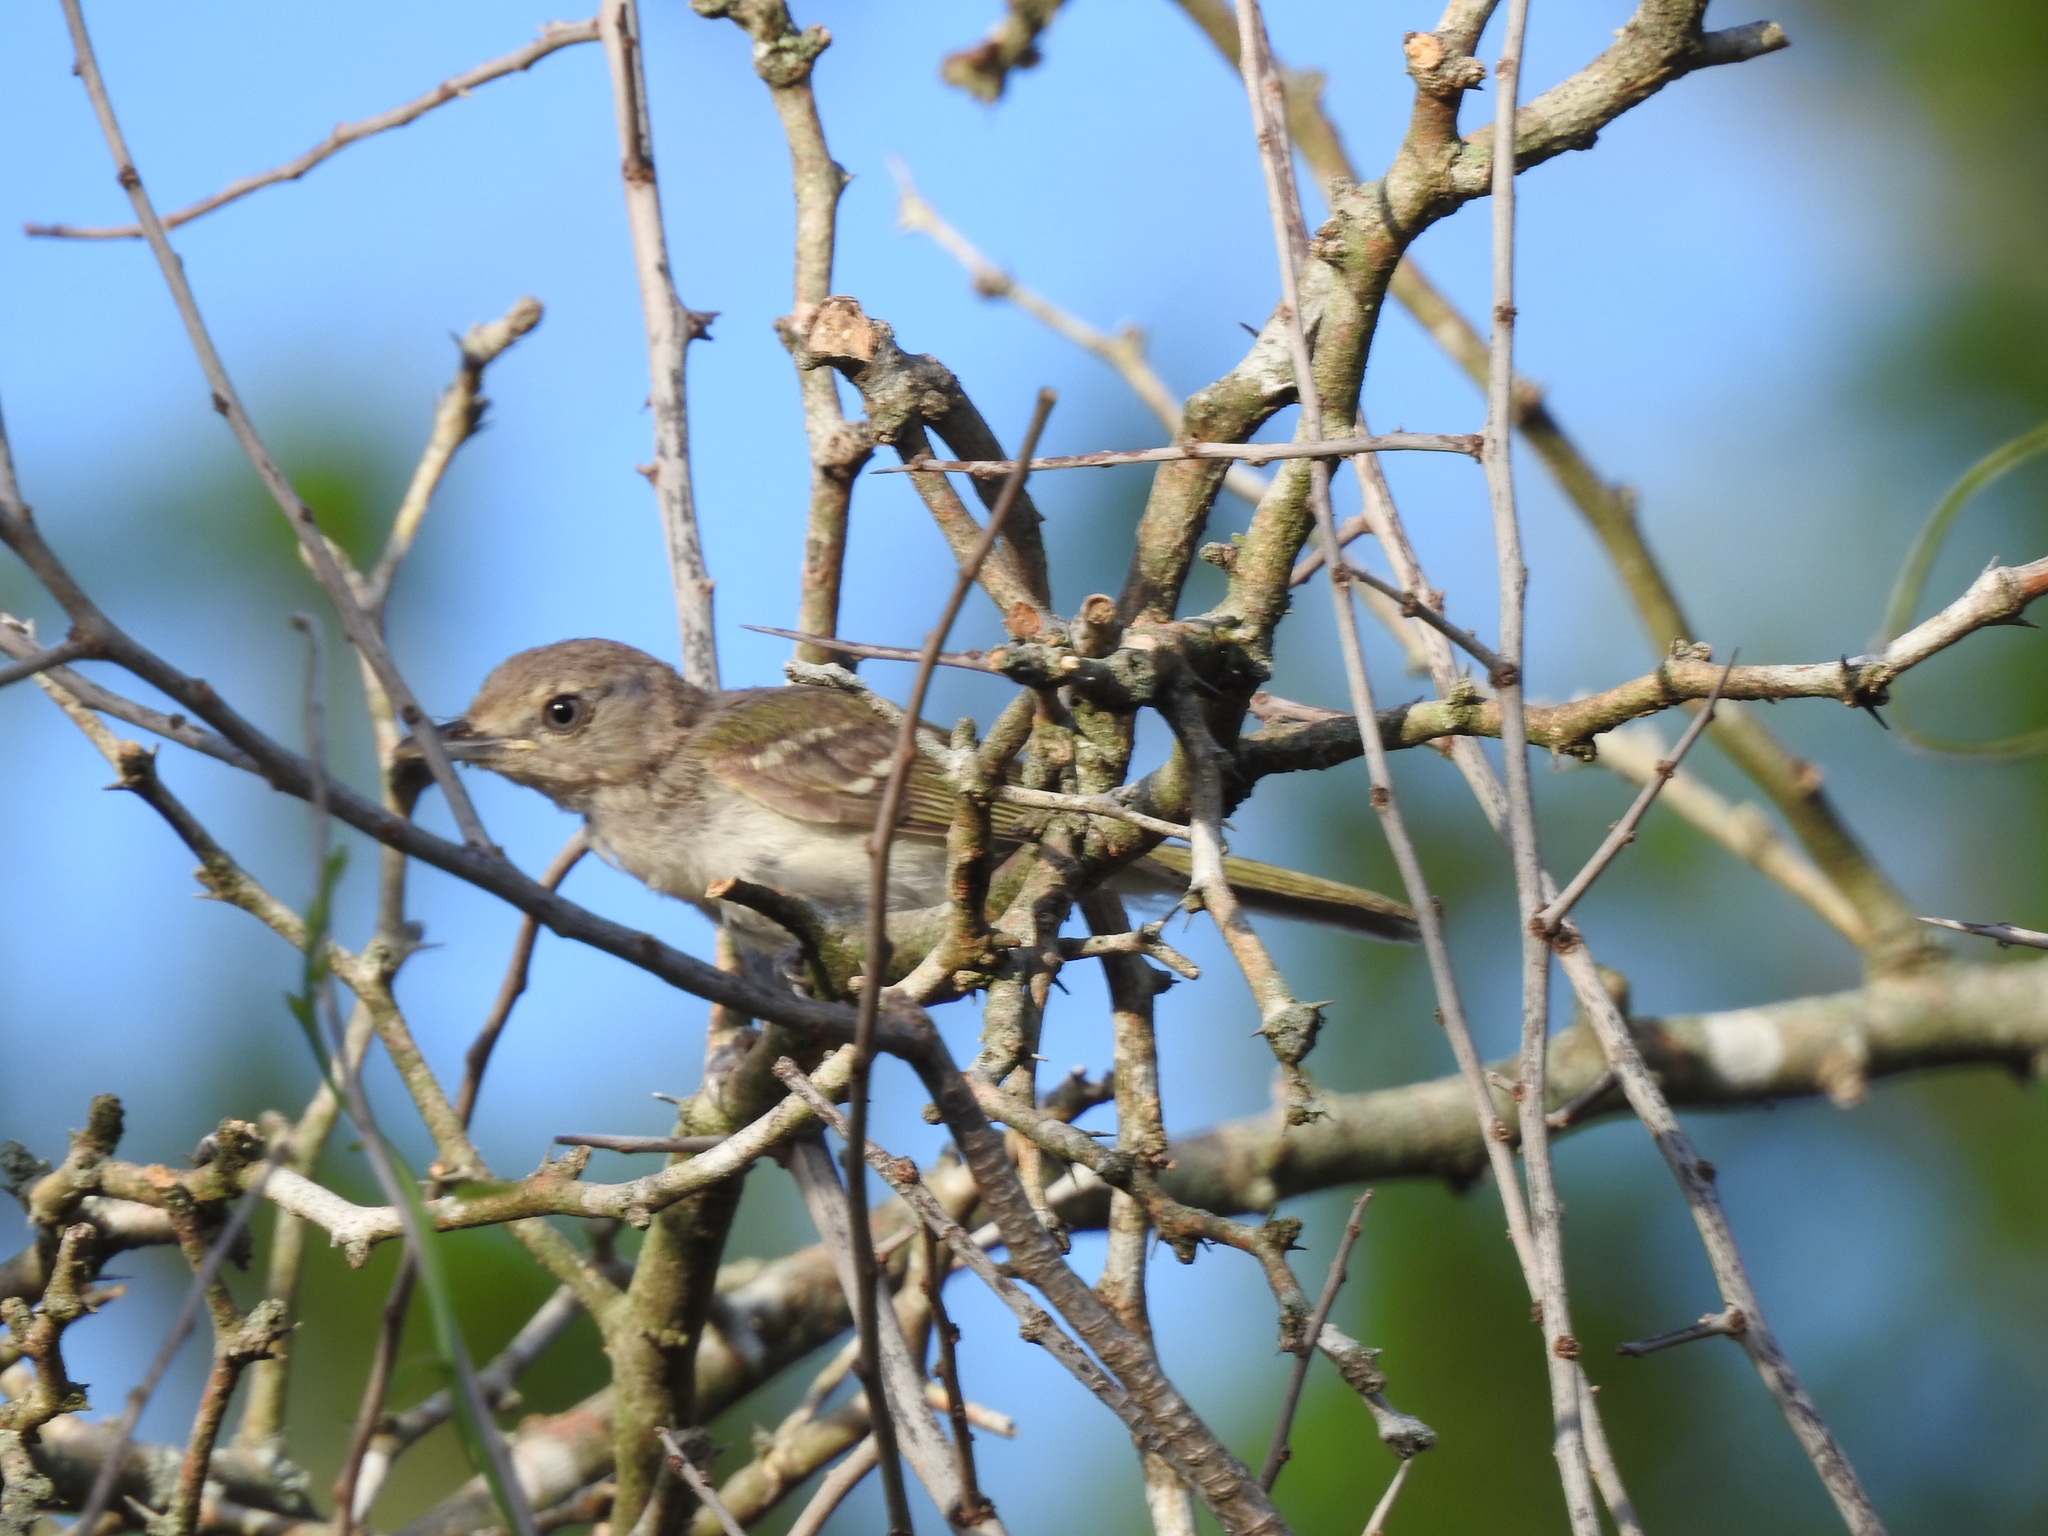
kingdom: Animalia
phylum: Chordata
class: Aves
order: Passeriformes
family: Vireonidae
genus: Vireo
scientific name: Vireo griseus
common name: White-eyed vireo
